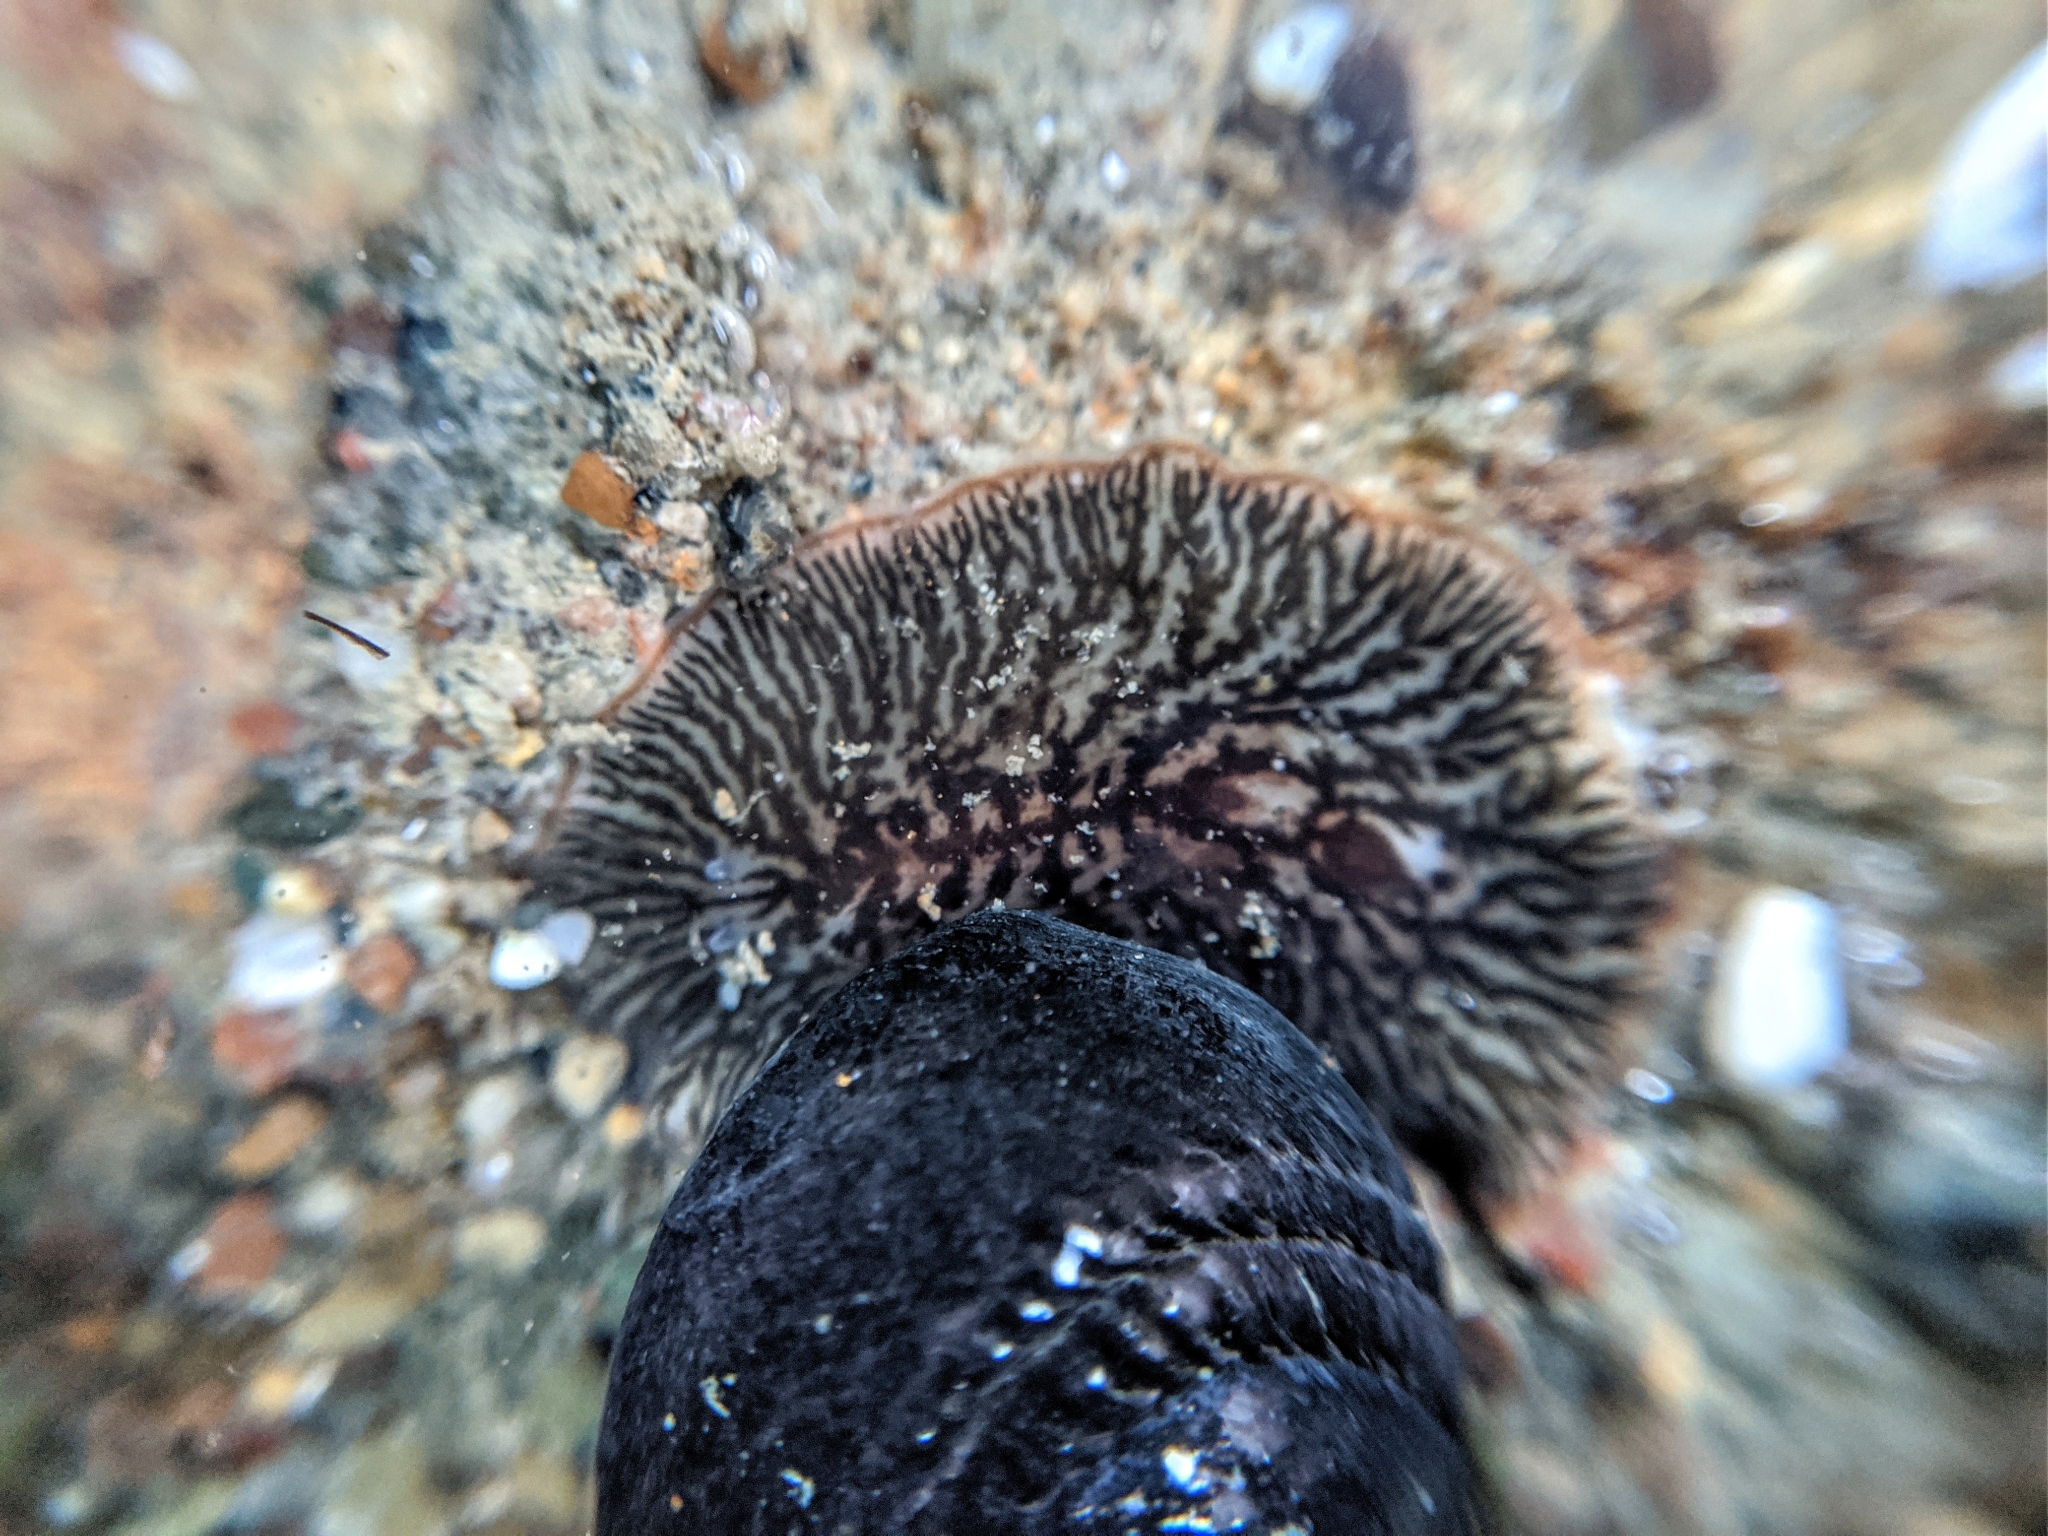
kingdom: Animalia
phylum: Platyhelminthes
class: Turbellaria
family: Cryptocelidae
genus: Hylocelis
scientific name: Hylocelis californica
